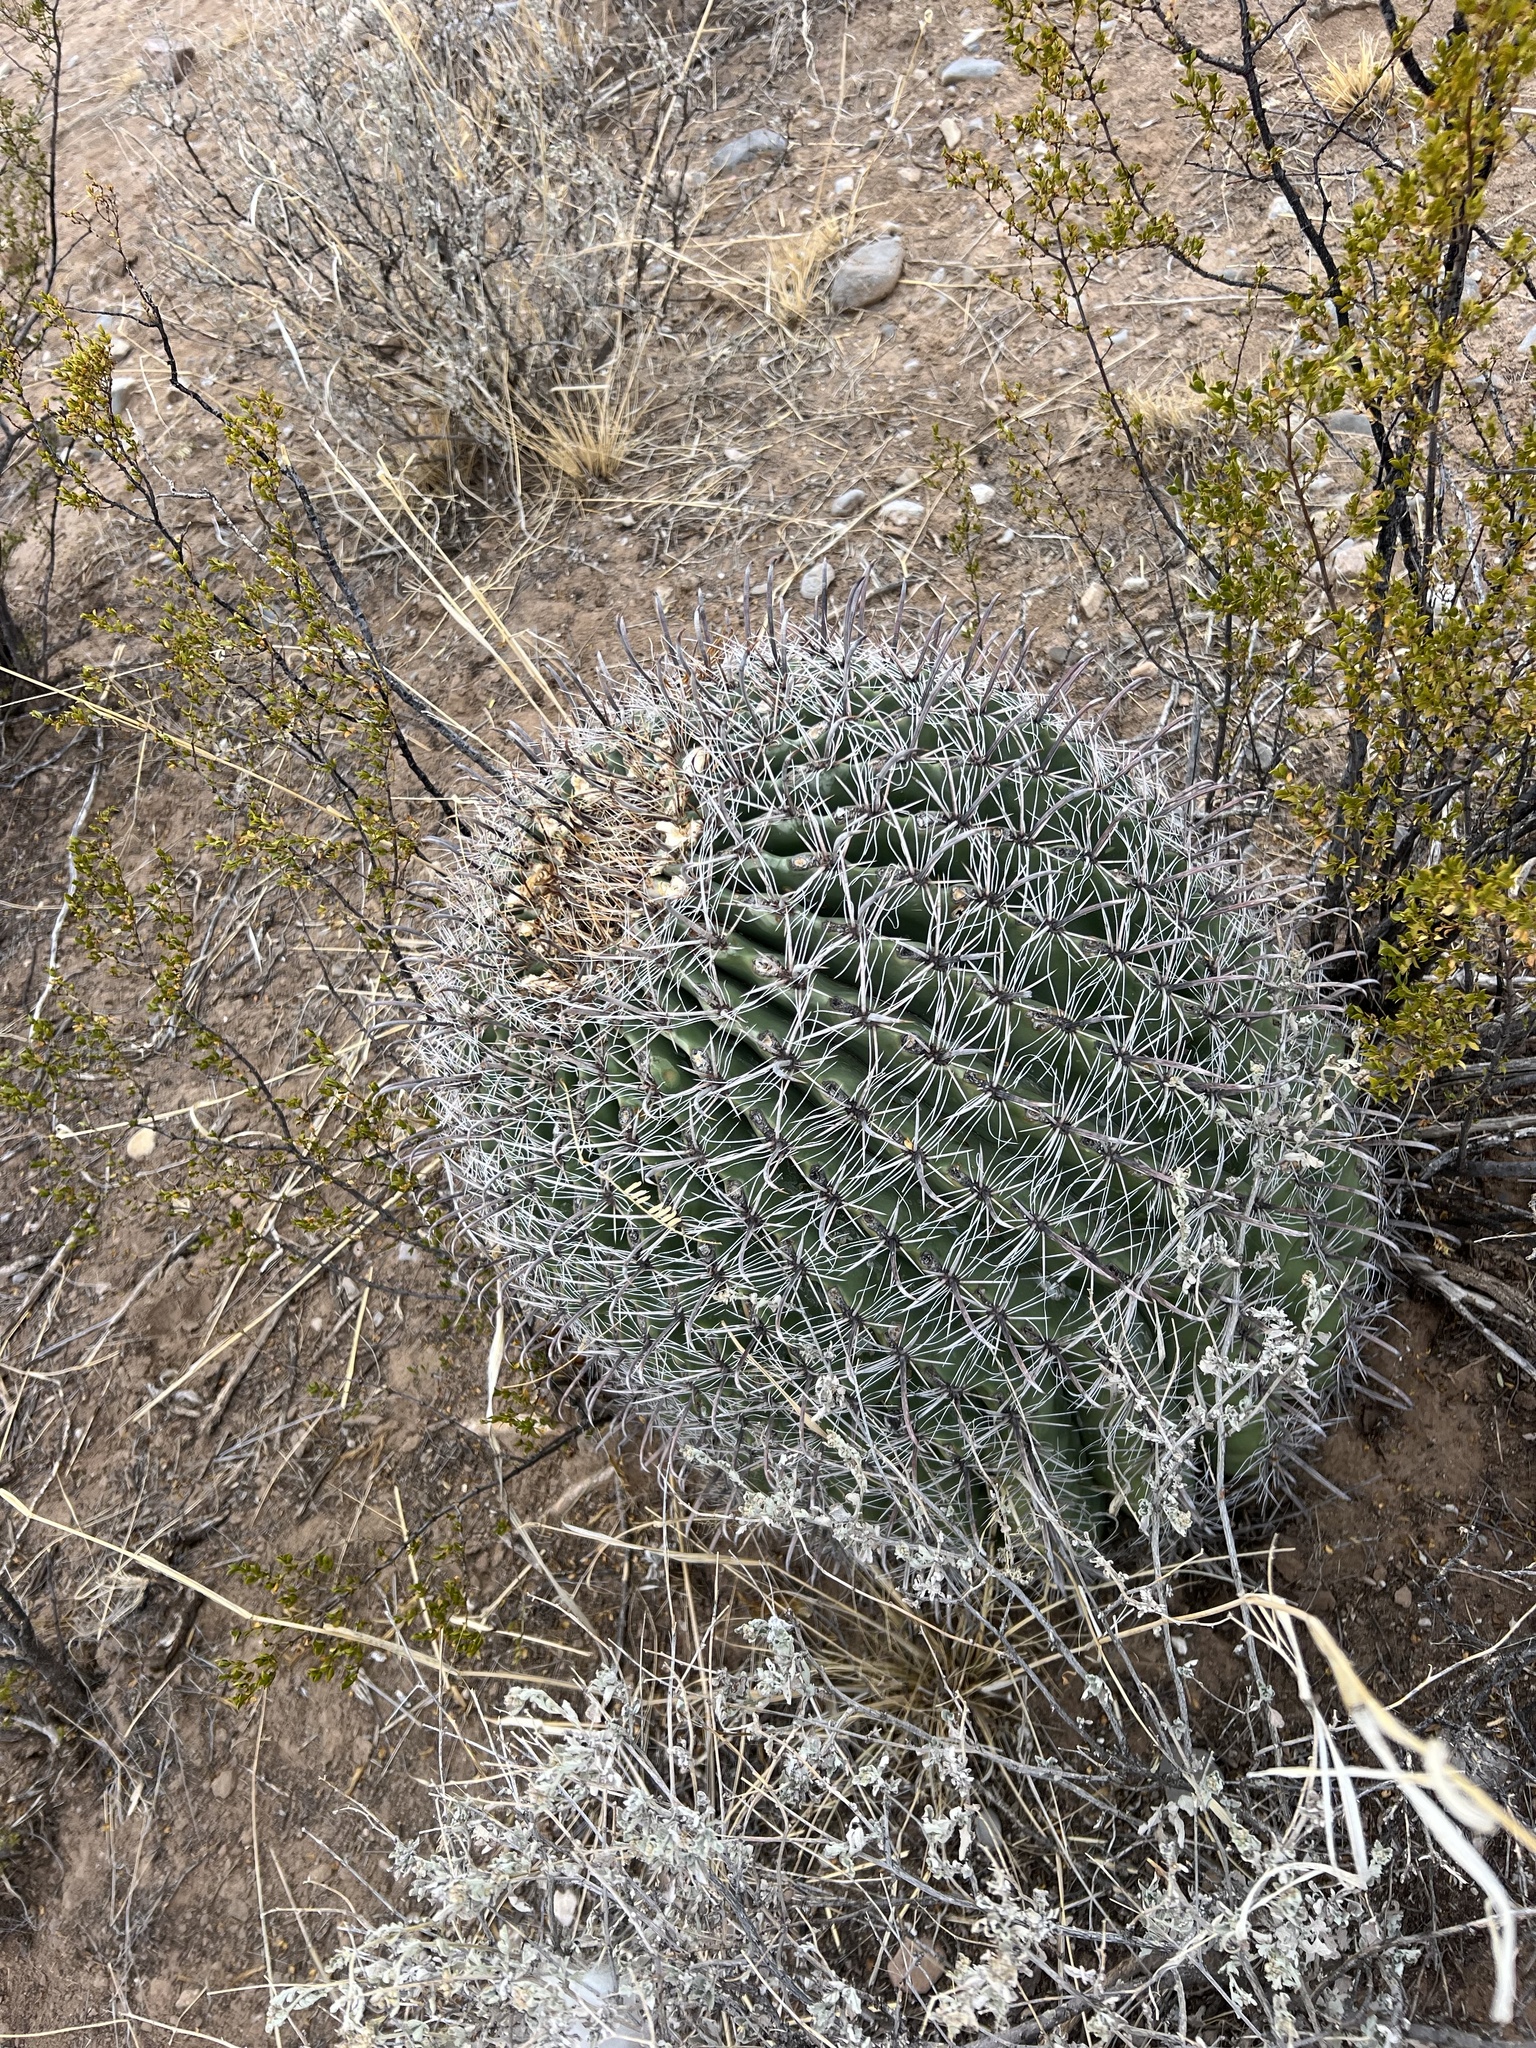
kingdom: Plantae
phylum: Tracheophyta
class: Magnoliopsida
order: Caryophyllales
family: Cactaceae
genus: Ferocactus
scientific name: Ferocactus wislizeni
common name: Candy barrel cactus
